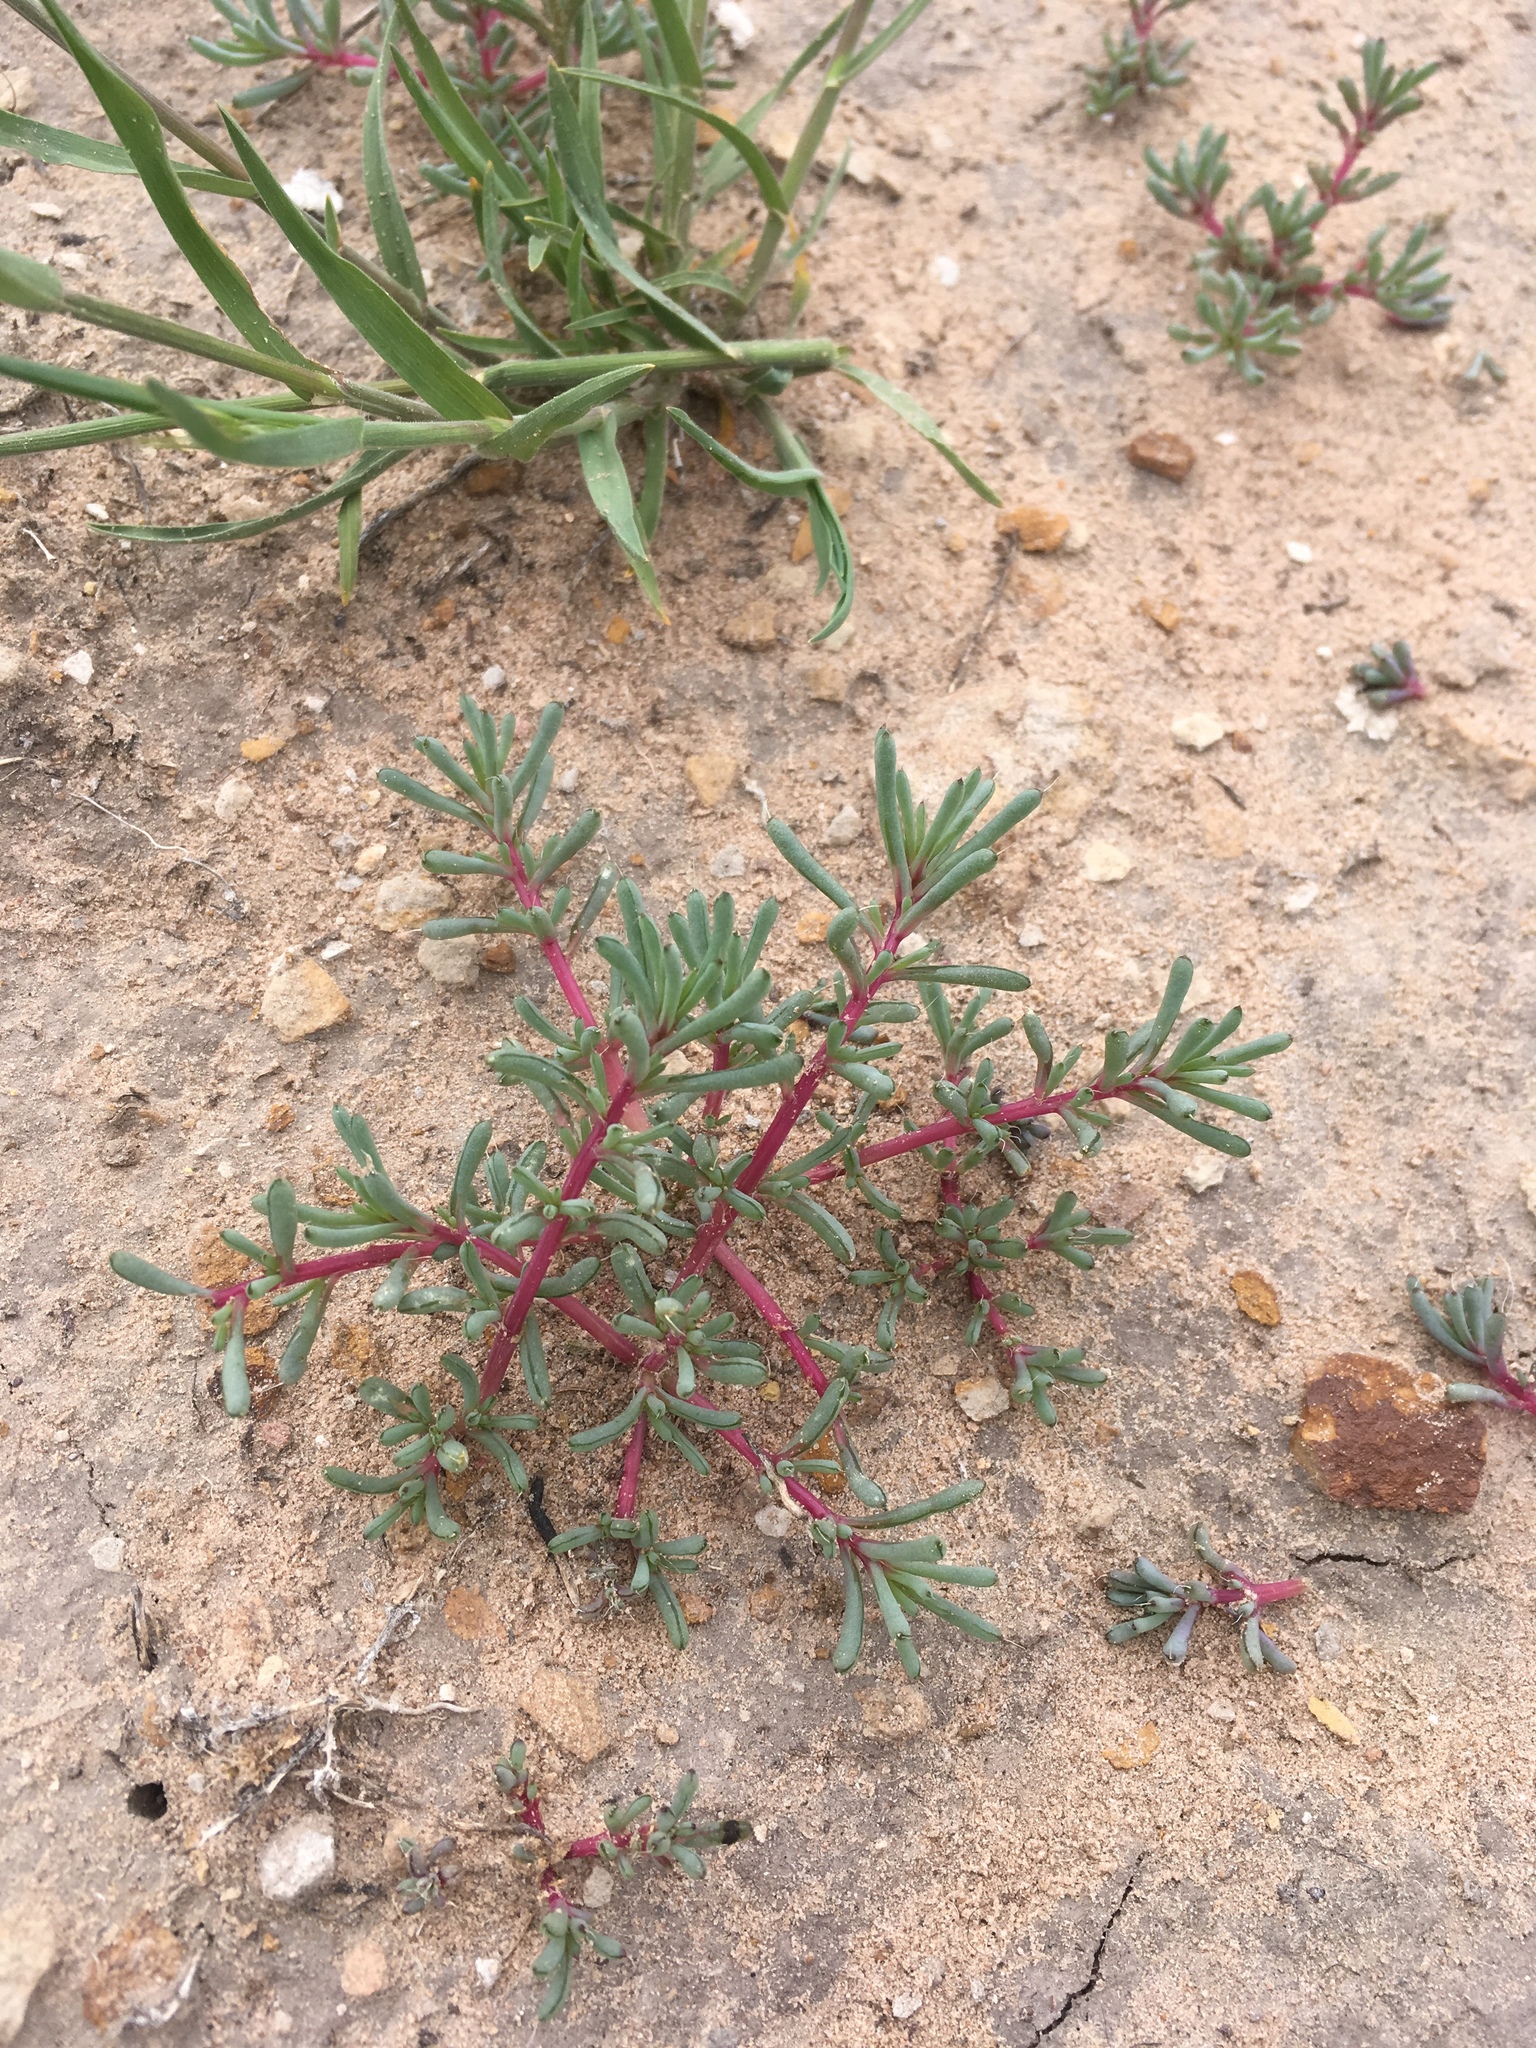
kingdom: Plantae
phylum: Tracheophyta
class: Magnoliopsida
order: Caryophyllales
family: Amaranthaceae
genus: Halogeton
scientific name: Halogeton glomeratus
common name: Saltlover
